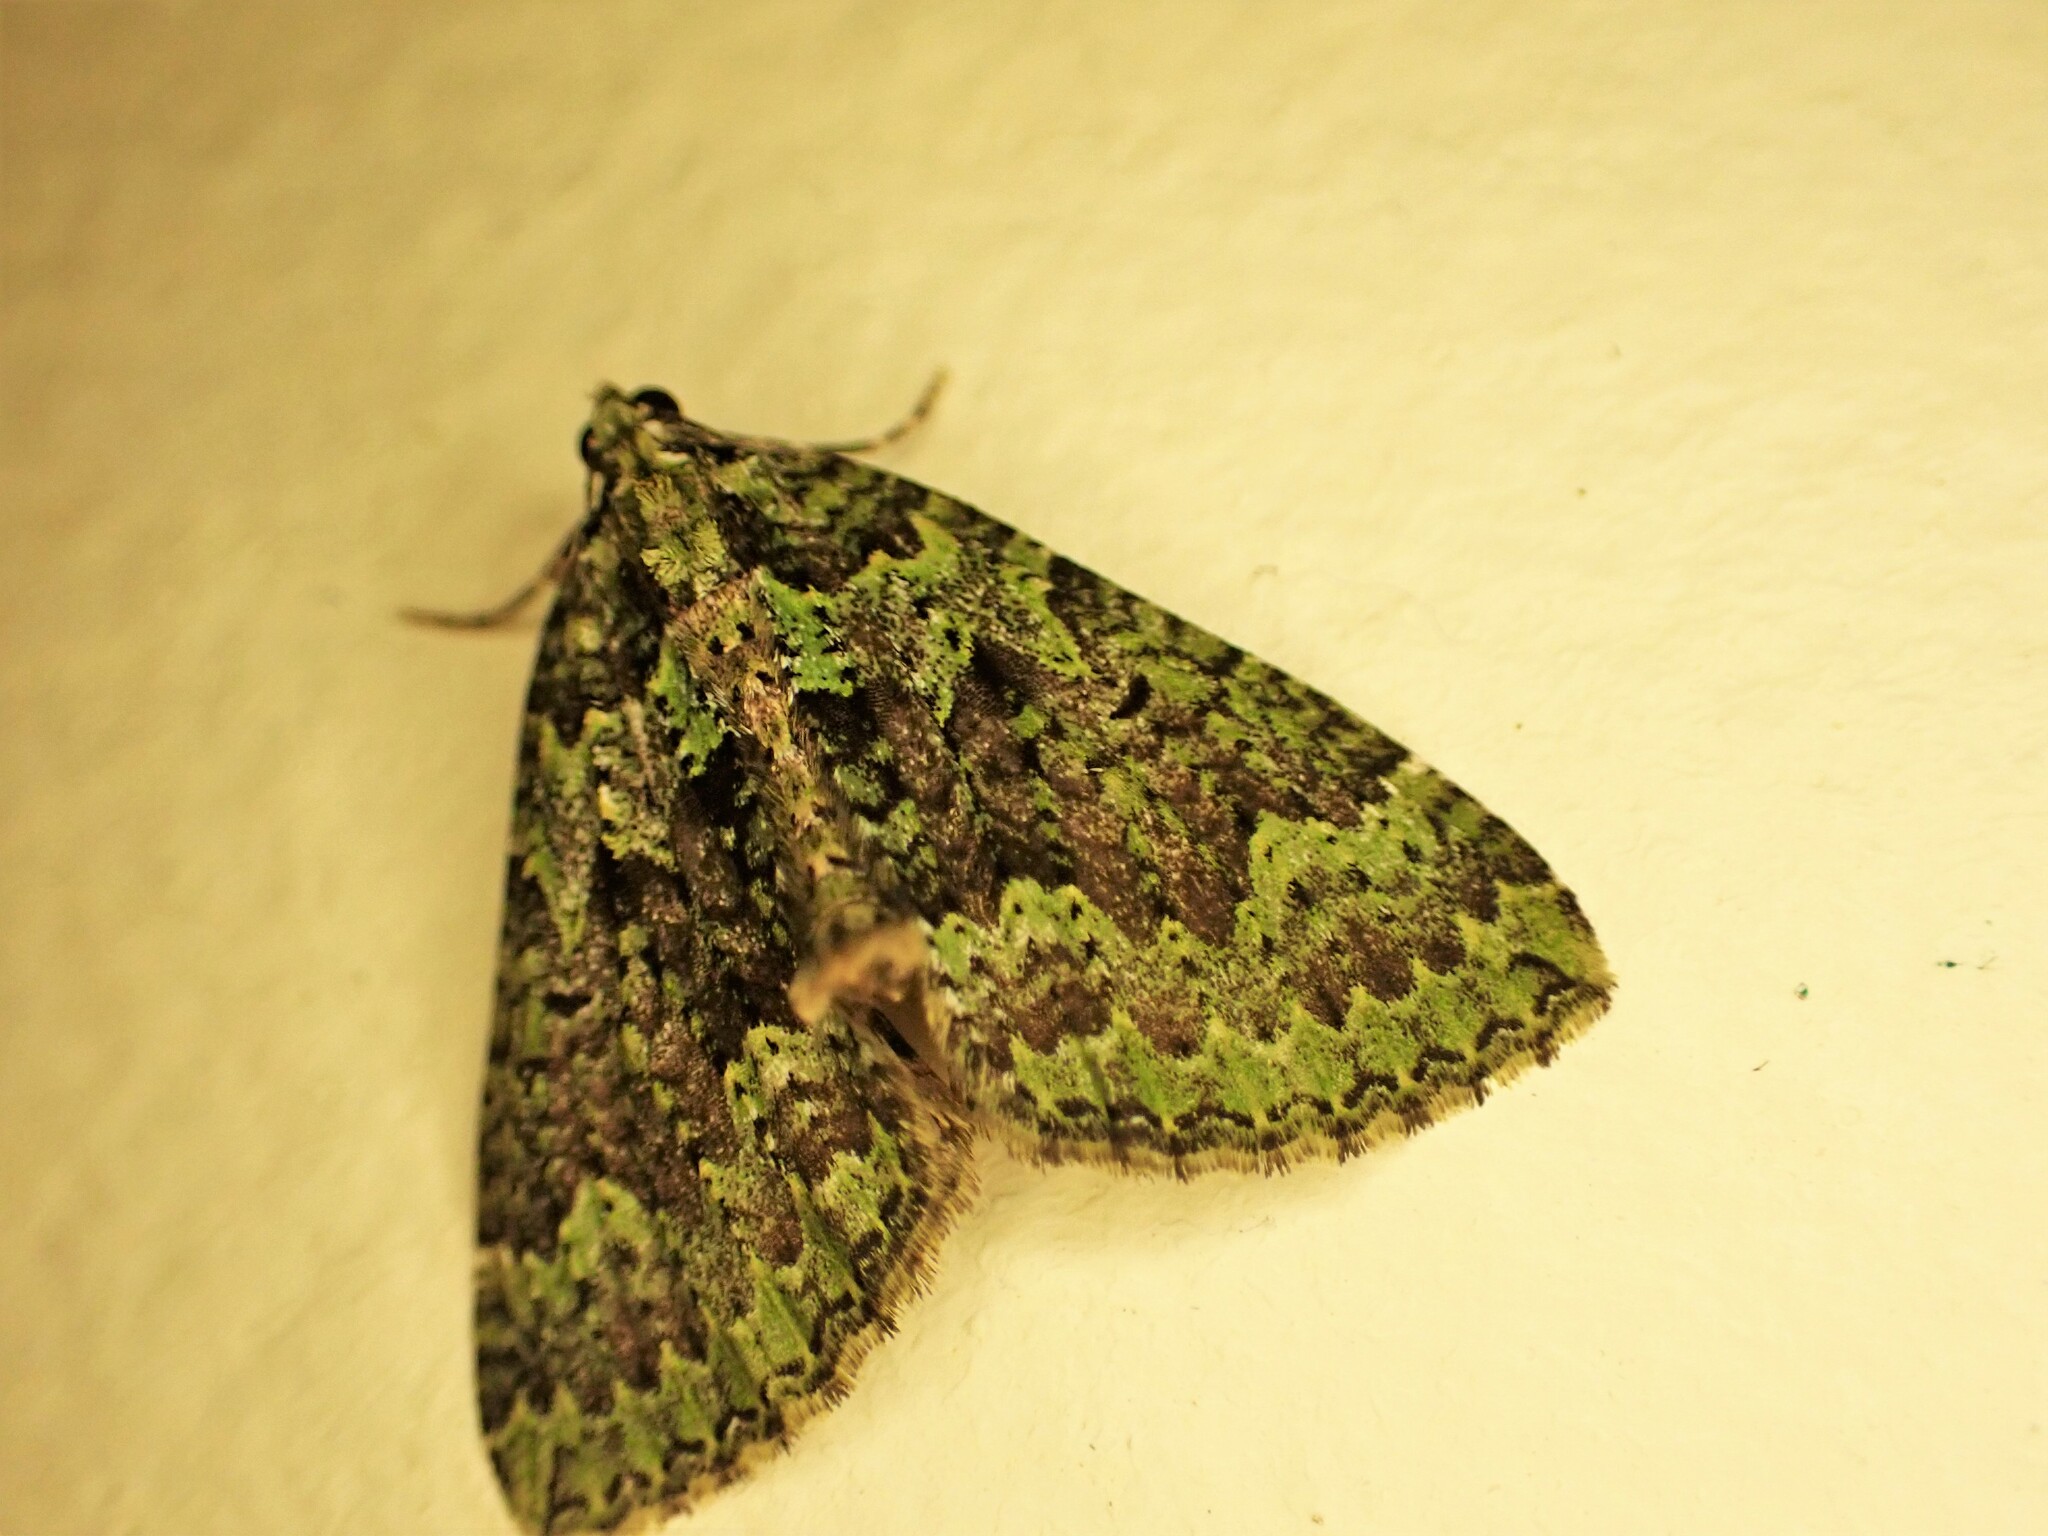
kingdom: Animalia
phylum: Arthropoda
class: Insecta
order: Lepidoptera
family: Geometridae
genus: Austrocidaria
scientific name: Austrocidaria callichlora
